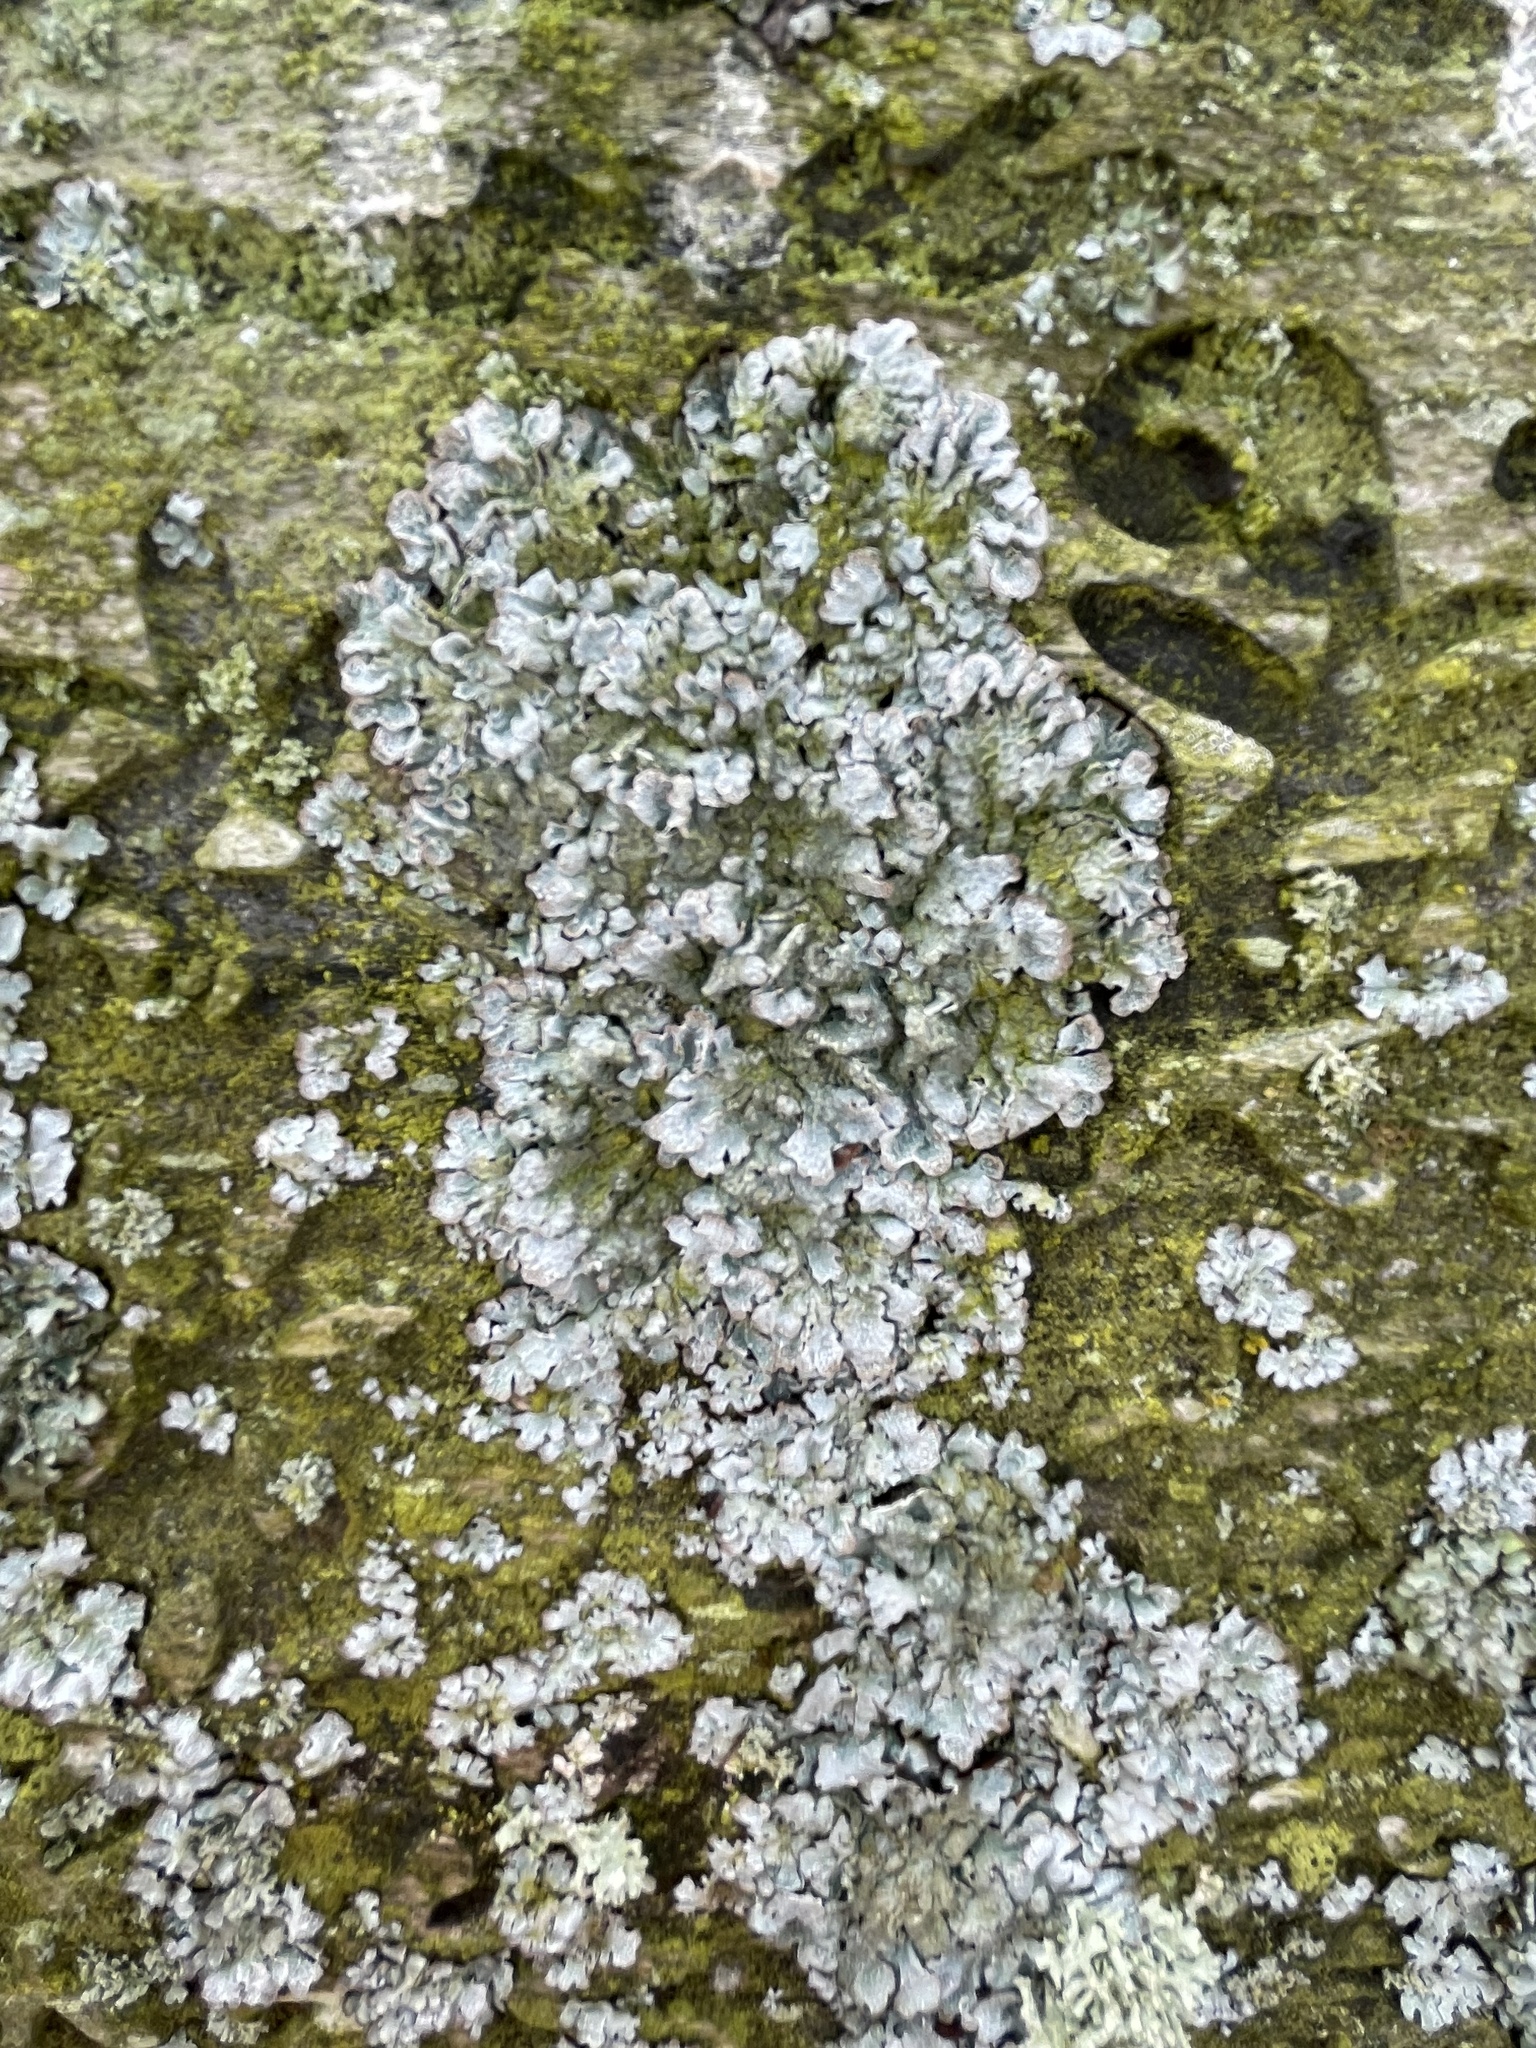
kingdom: Fungi
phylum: Ascomycota
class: Lecanoromycetes
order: Lecanorales
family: Parmeliaceae
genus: Parmelia
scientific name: Parmelia sulcata
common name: Netted shield lichen
